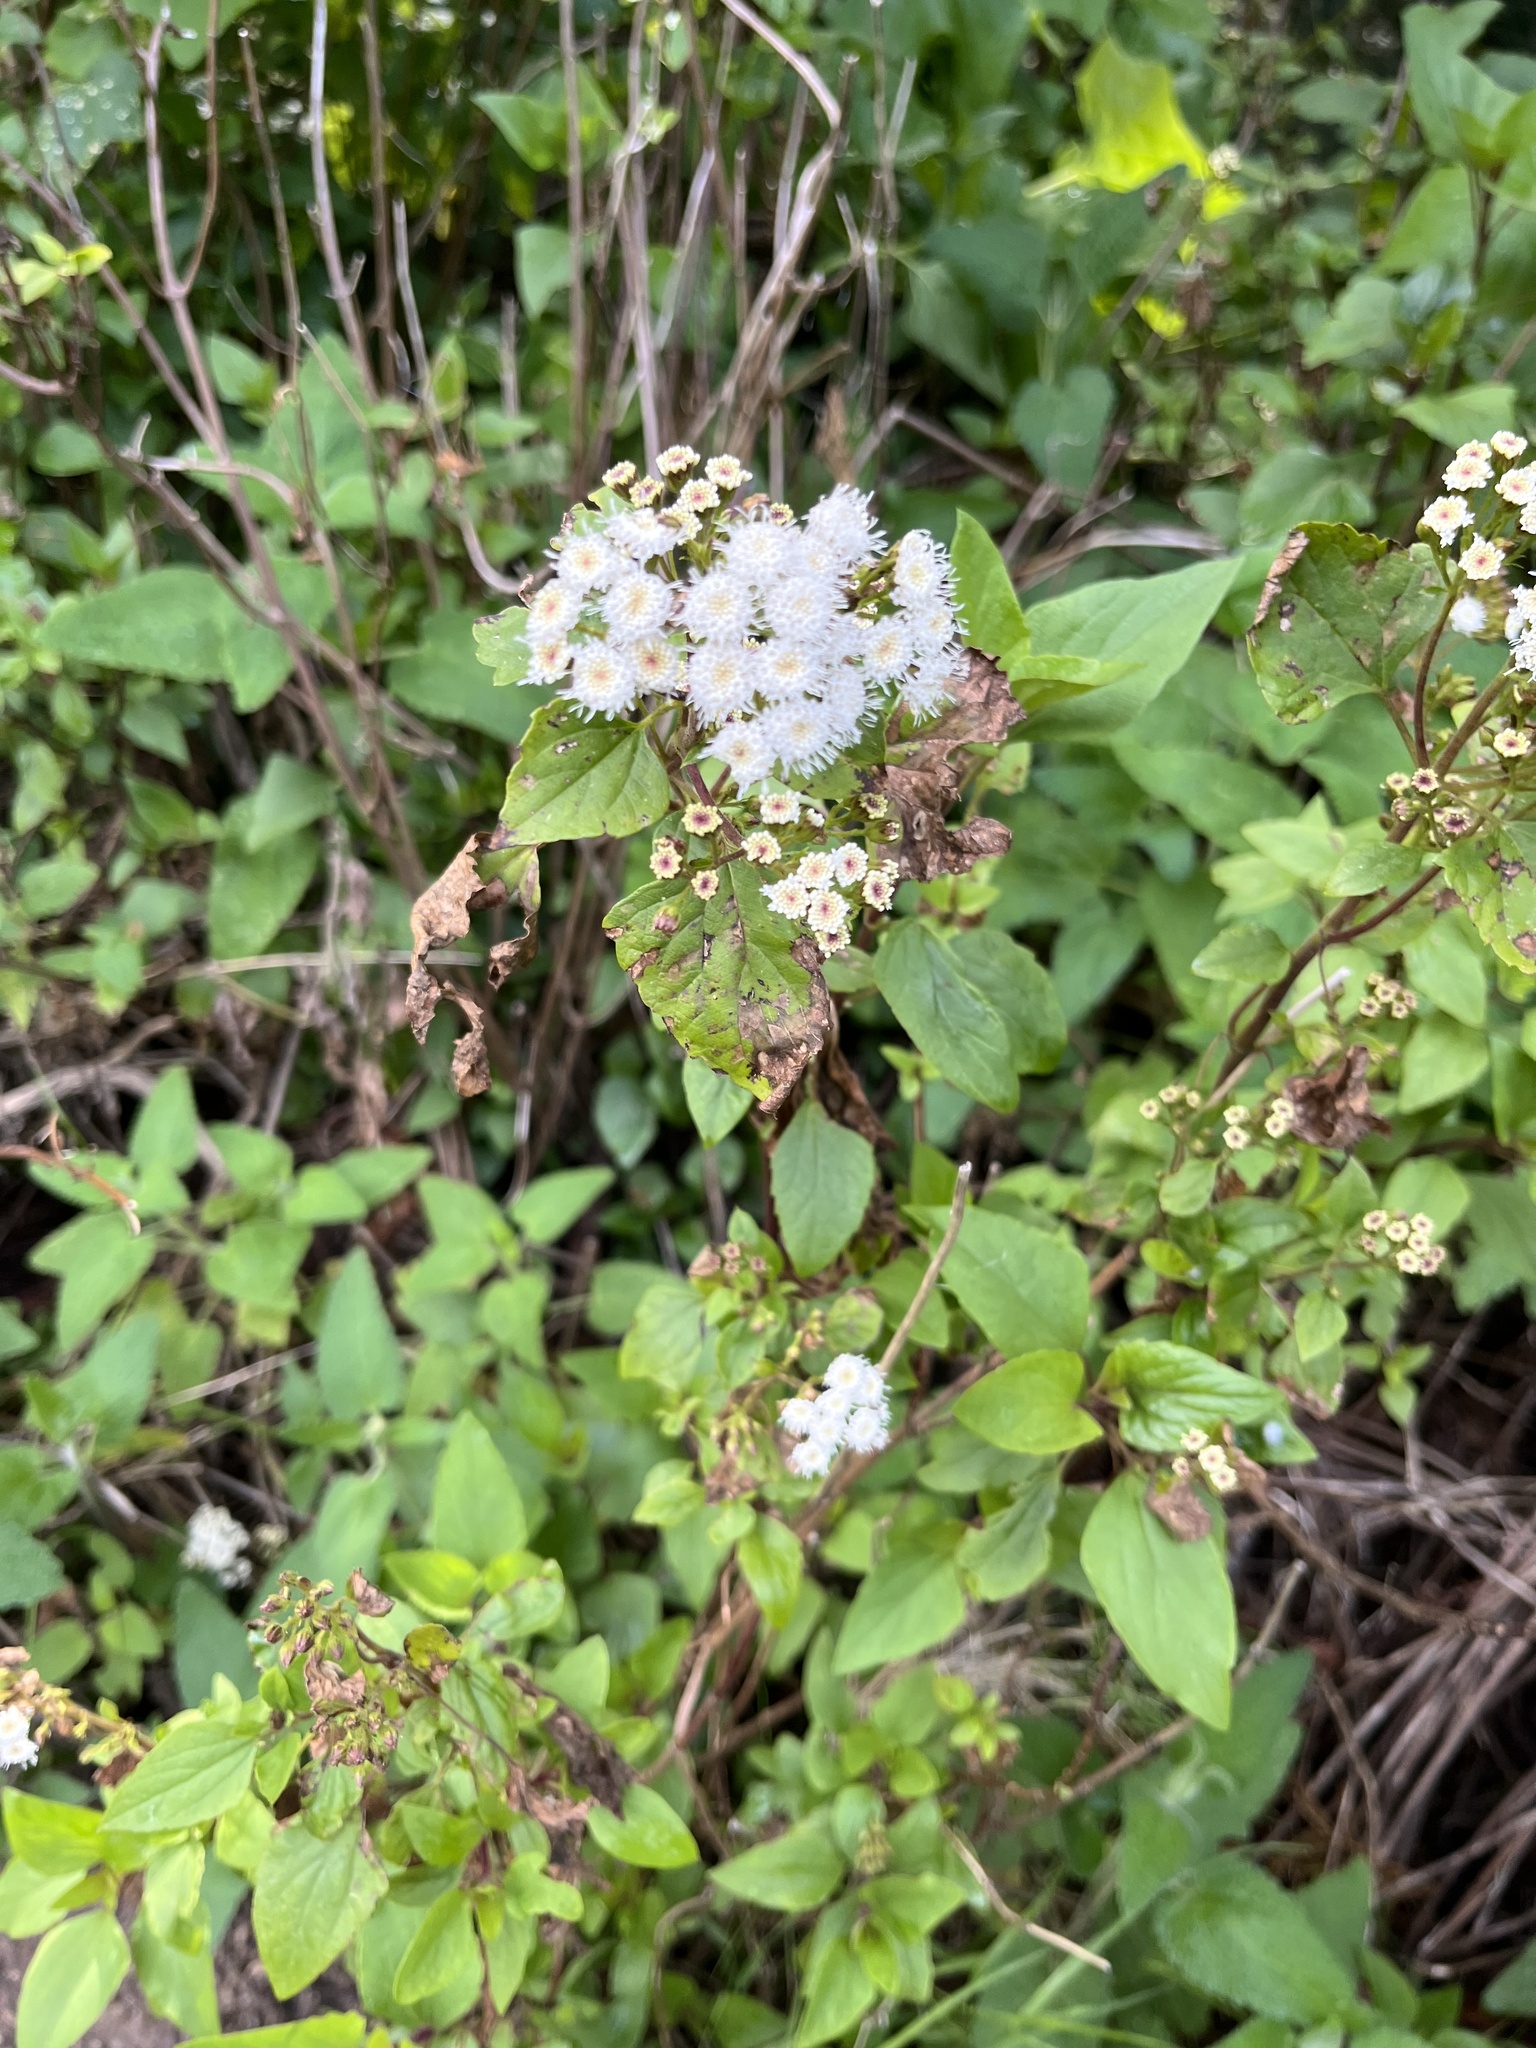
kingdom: Plantae
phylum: Tracheophyta
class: Magnoliopsida
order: Asterales
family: Asteraceae
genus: Ageratina
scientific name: Ageratina adenophora
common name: Sticky snakeroot
